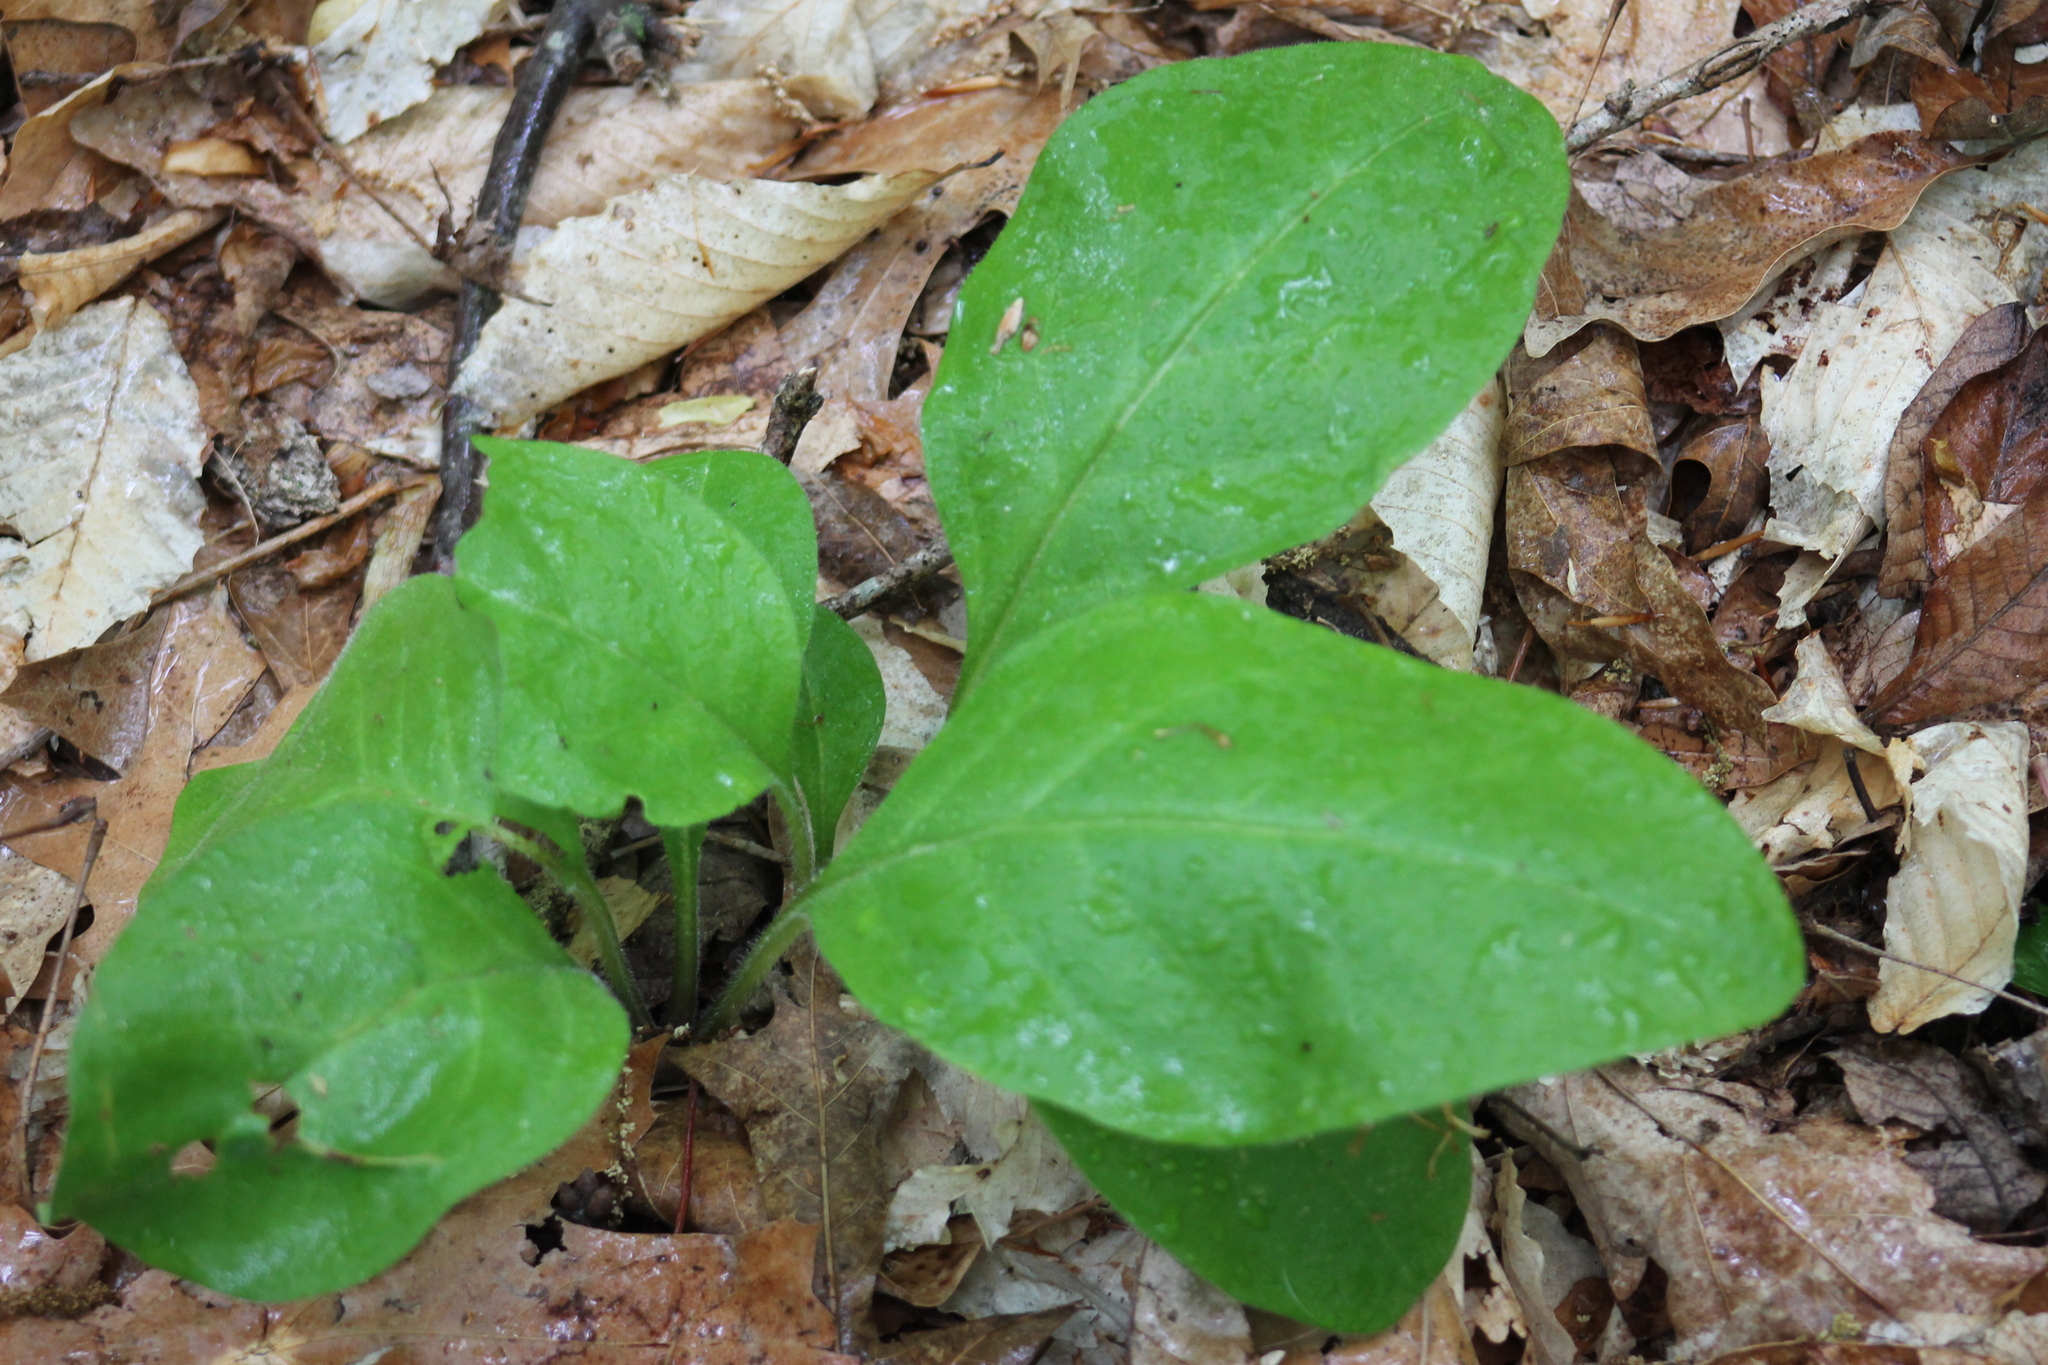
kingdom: Plantae
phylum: Tracheophyta
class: Magnoliopsida
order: Boraginales
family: Boraginaceae
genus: Andersonglossum
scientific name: Andersonglossum virginianum
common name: Wild comfrey
